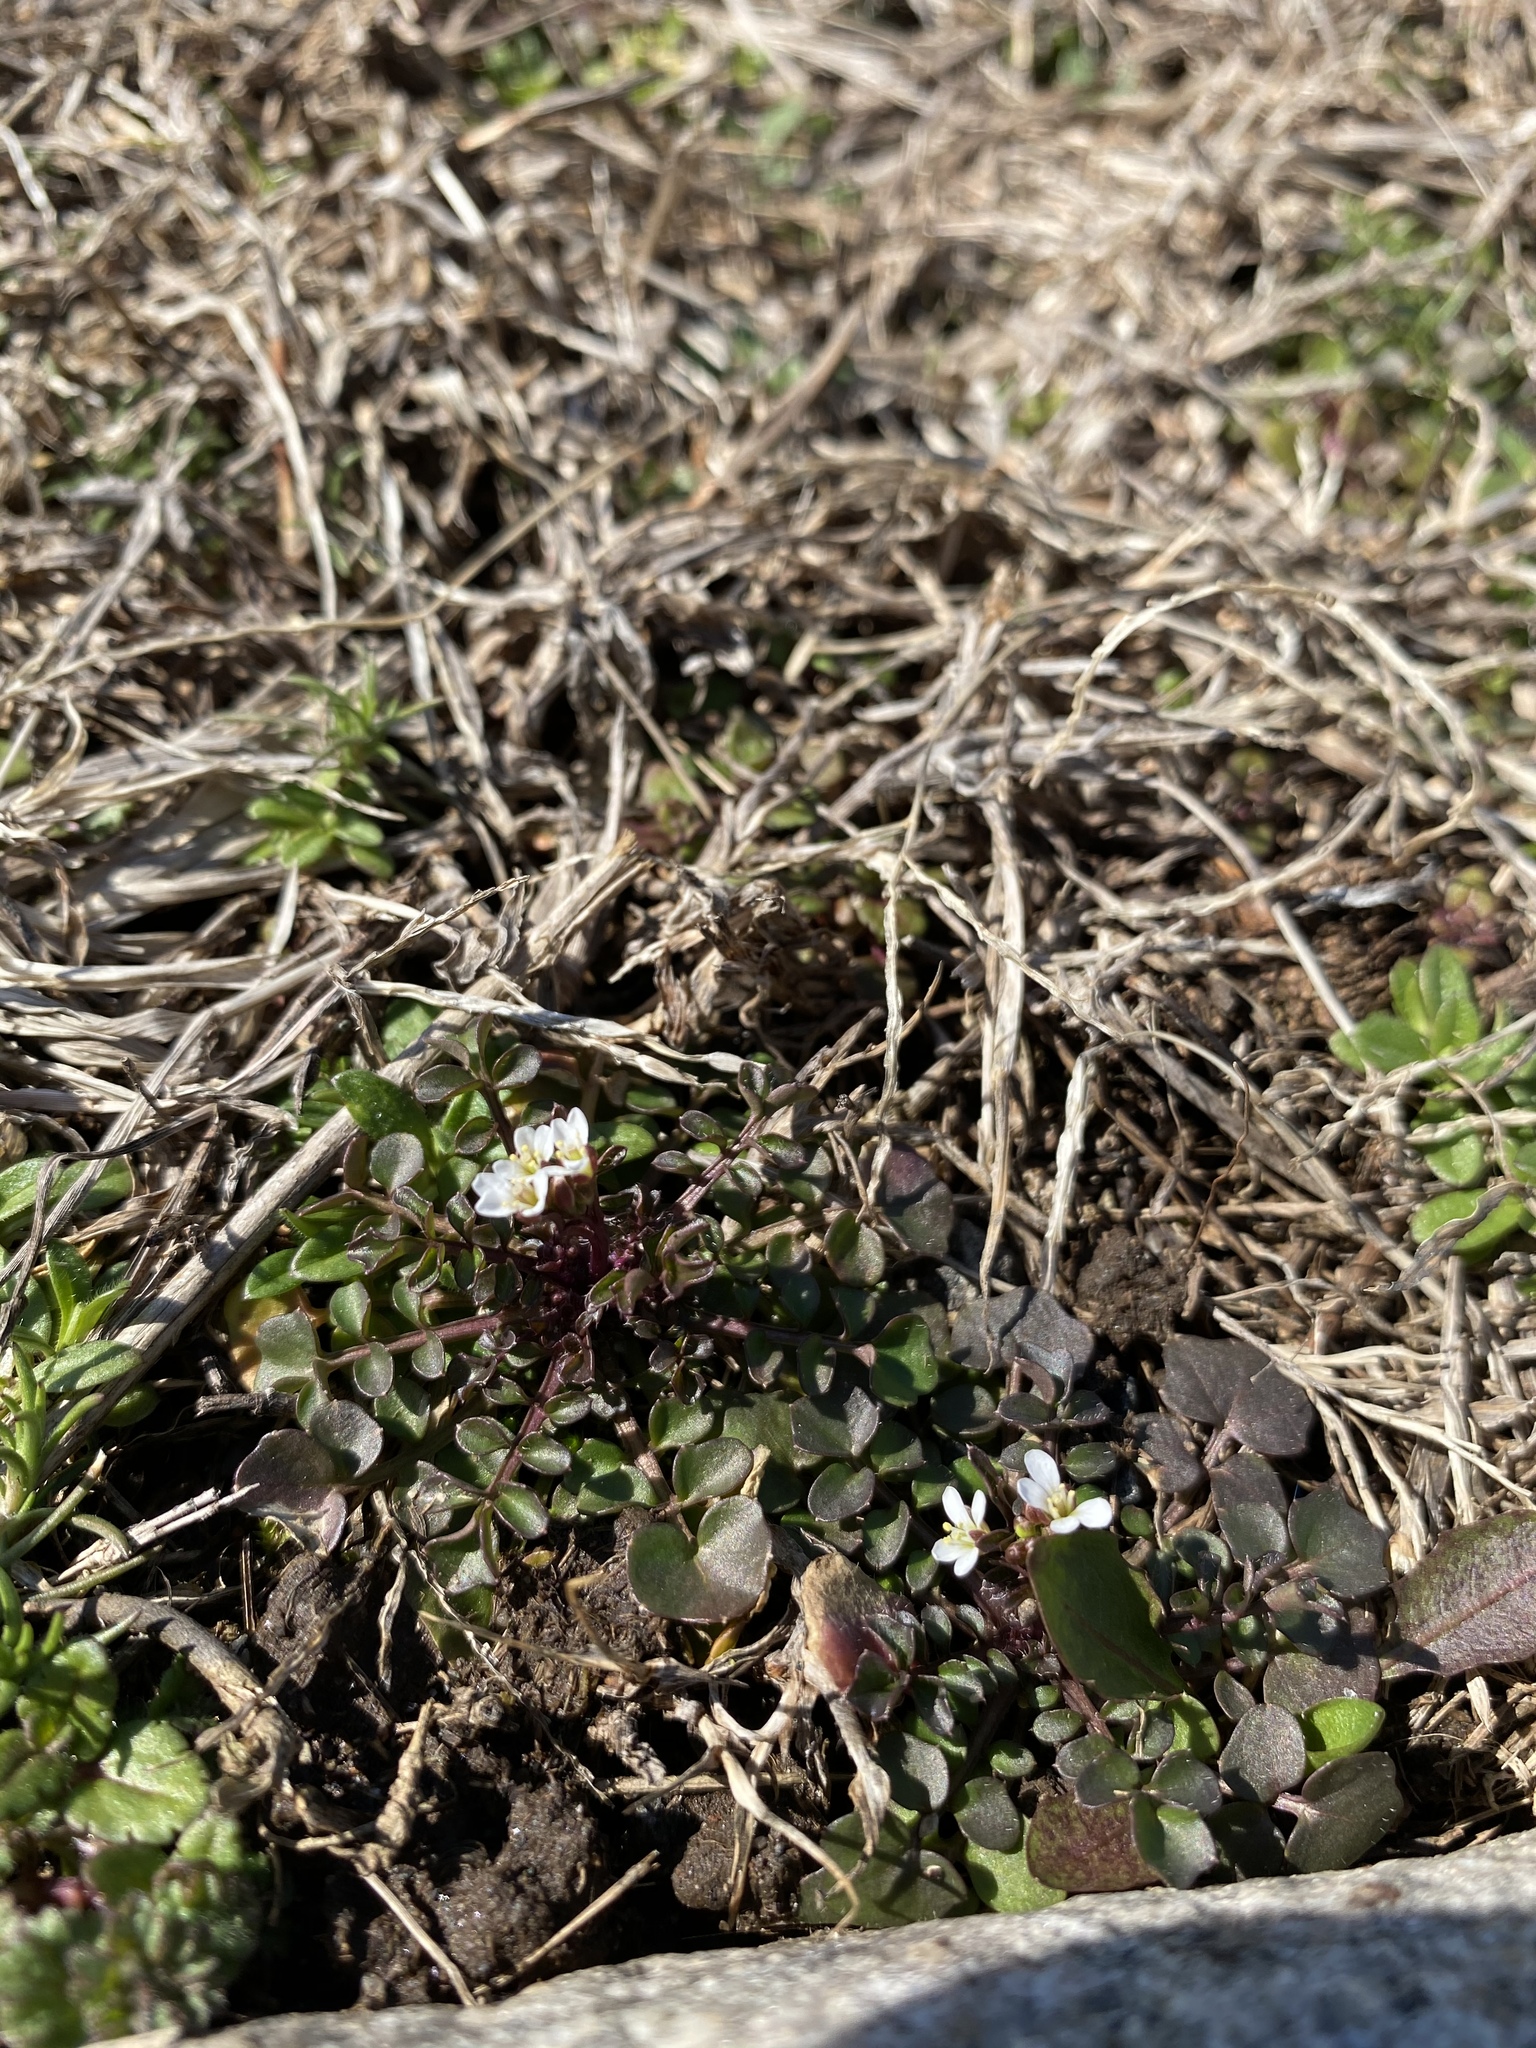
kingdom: Plantae
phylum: Tracheophyta
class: Magnoliopsida
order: Brassicales
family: Brassicaceae
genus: Cardamine
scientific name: Cardamine hirsuta
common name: Hairy bittercress
